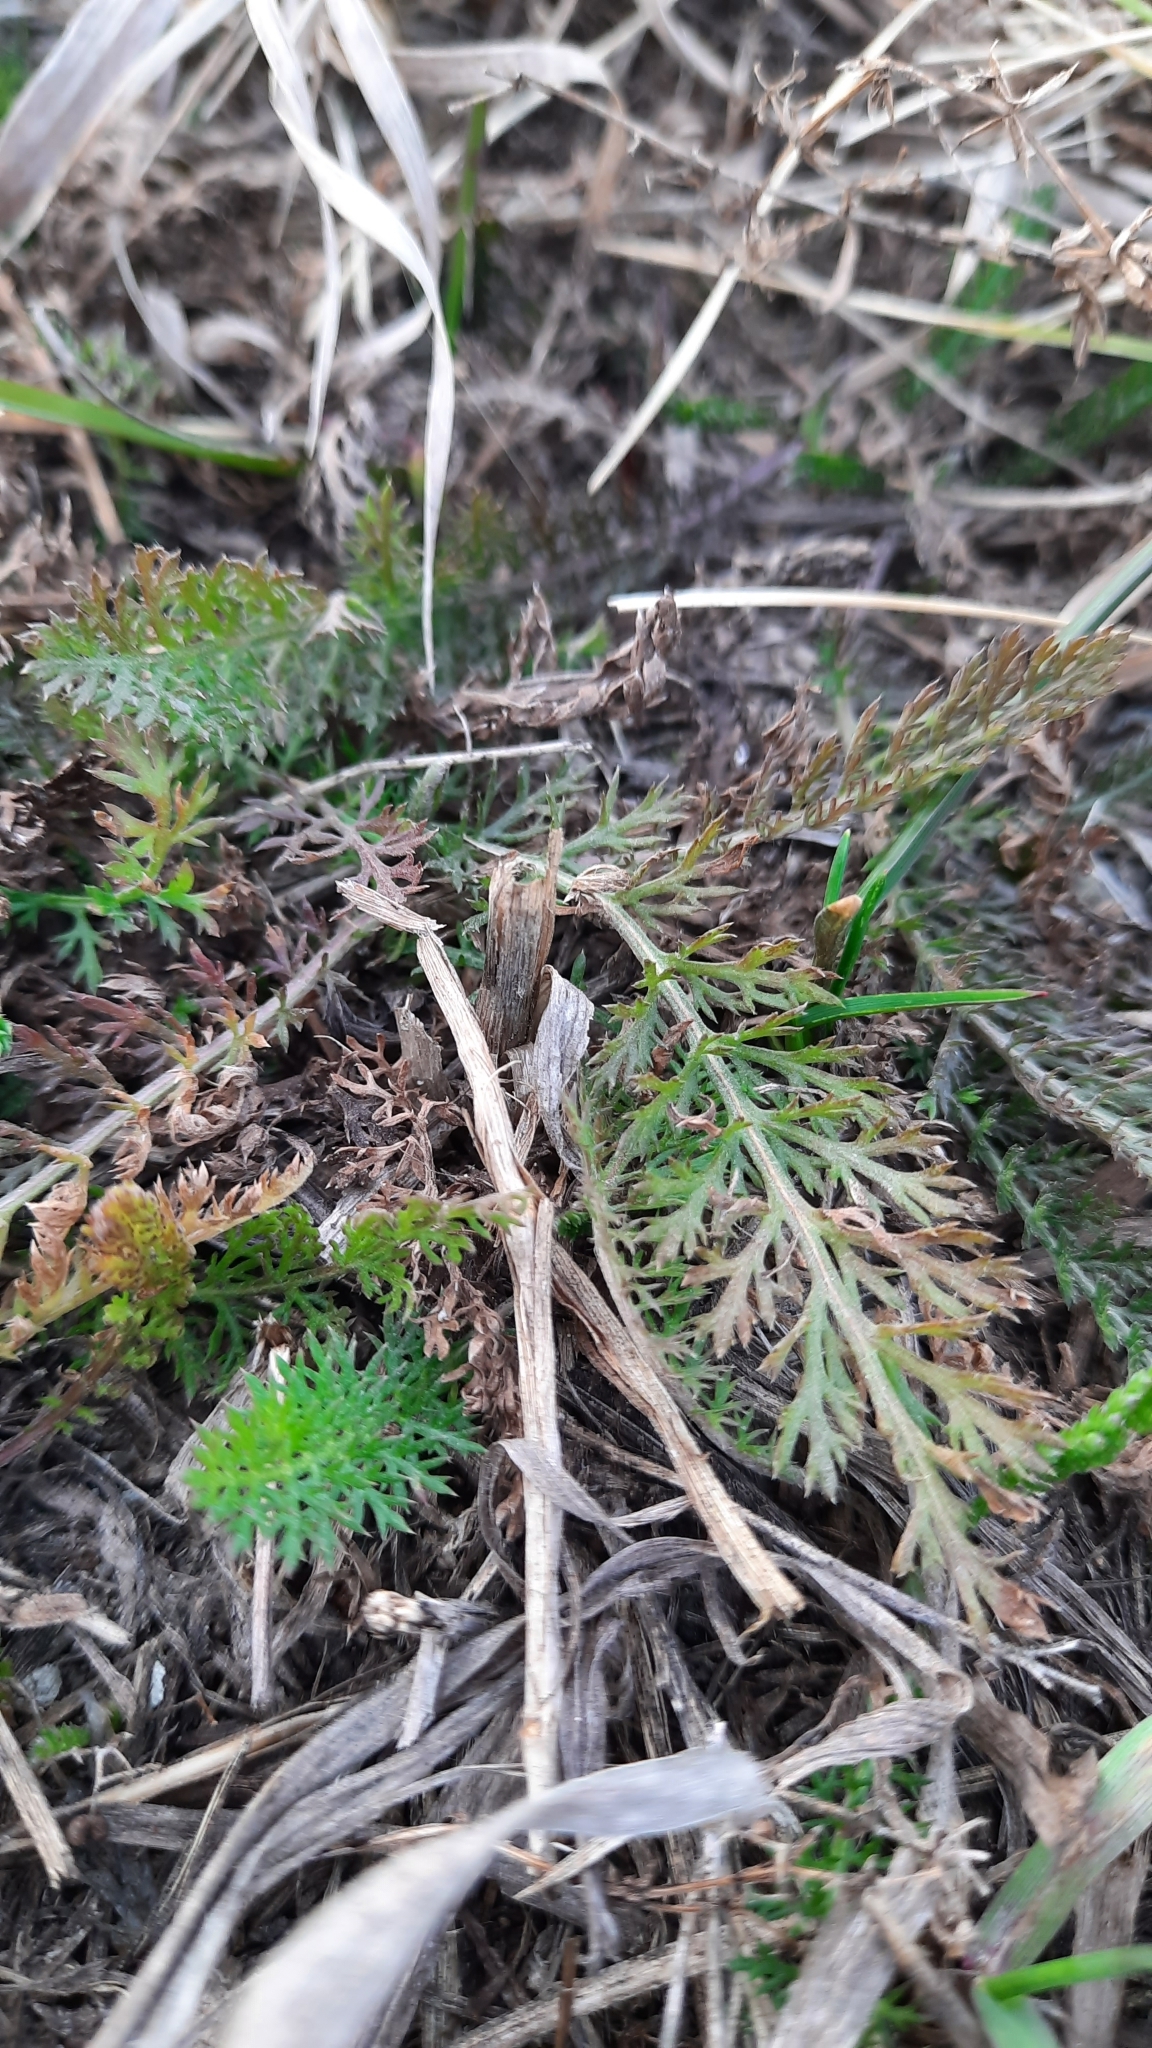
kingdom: Plantae
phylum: Tracheophyta
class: Magnoliopsida
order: Asterales
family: Asteraceae
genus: Achillea
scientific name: Achillea millefolium
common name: Yarrow
